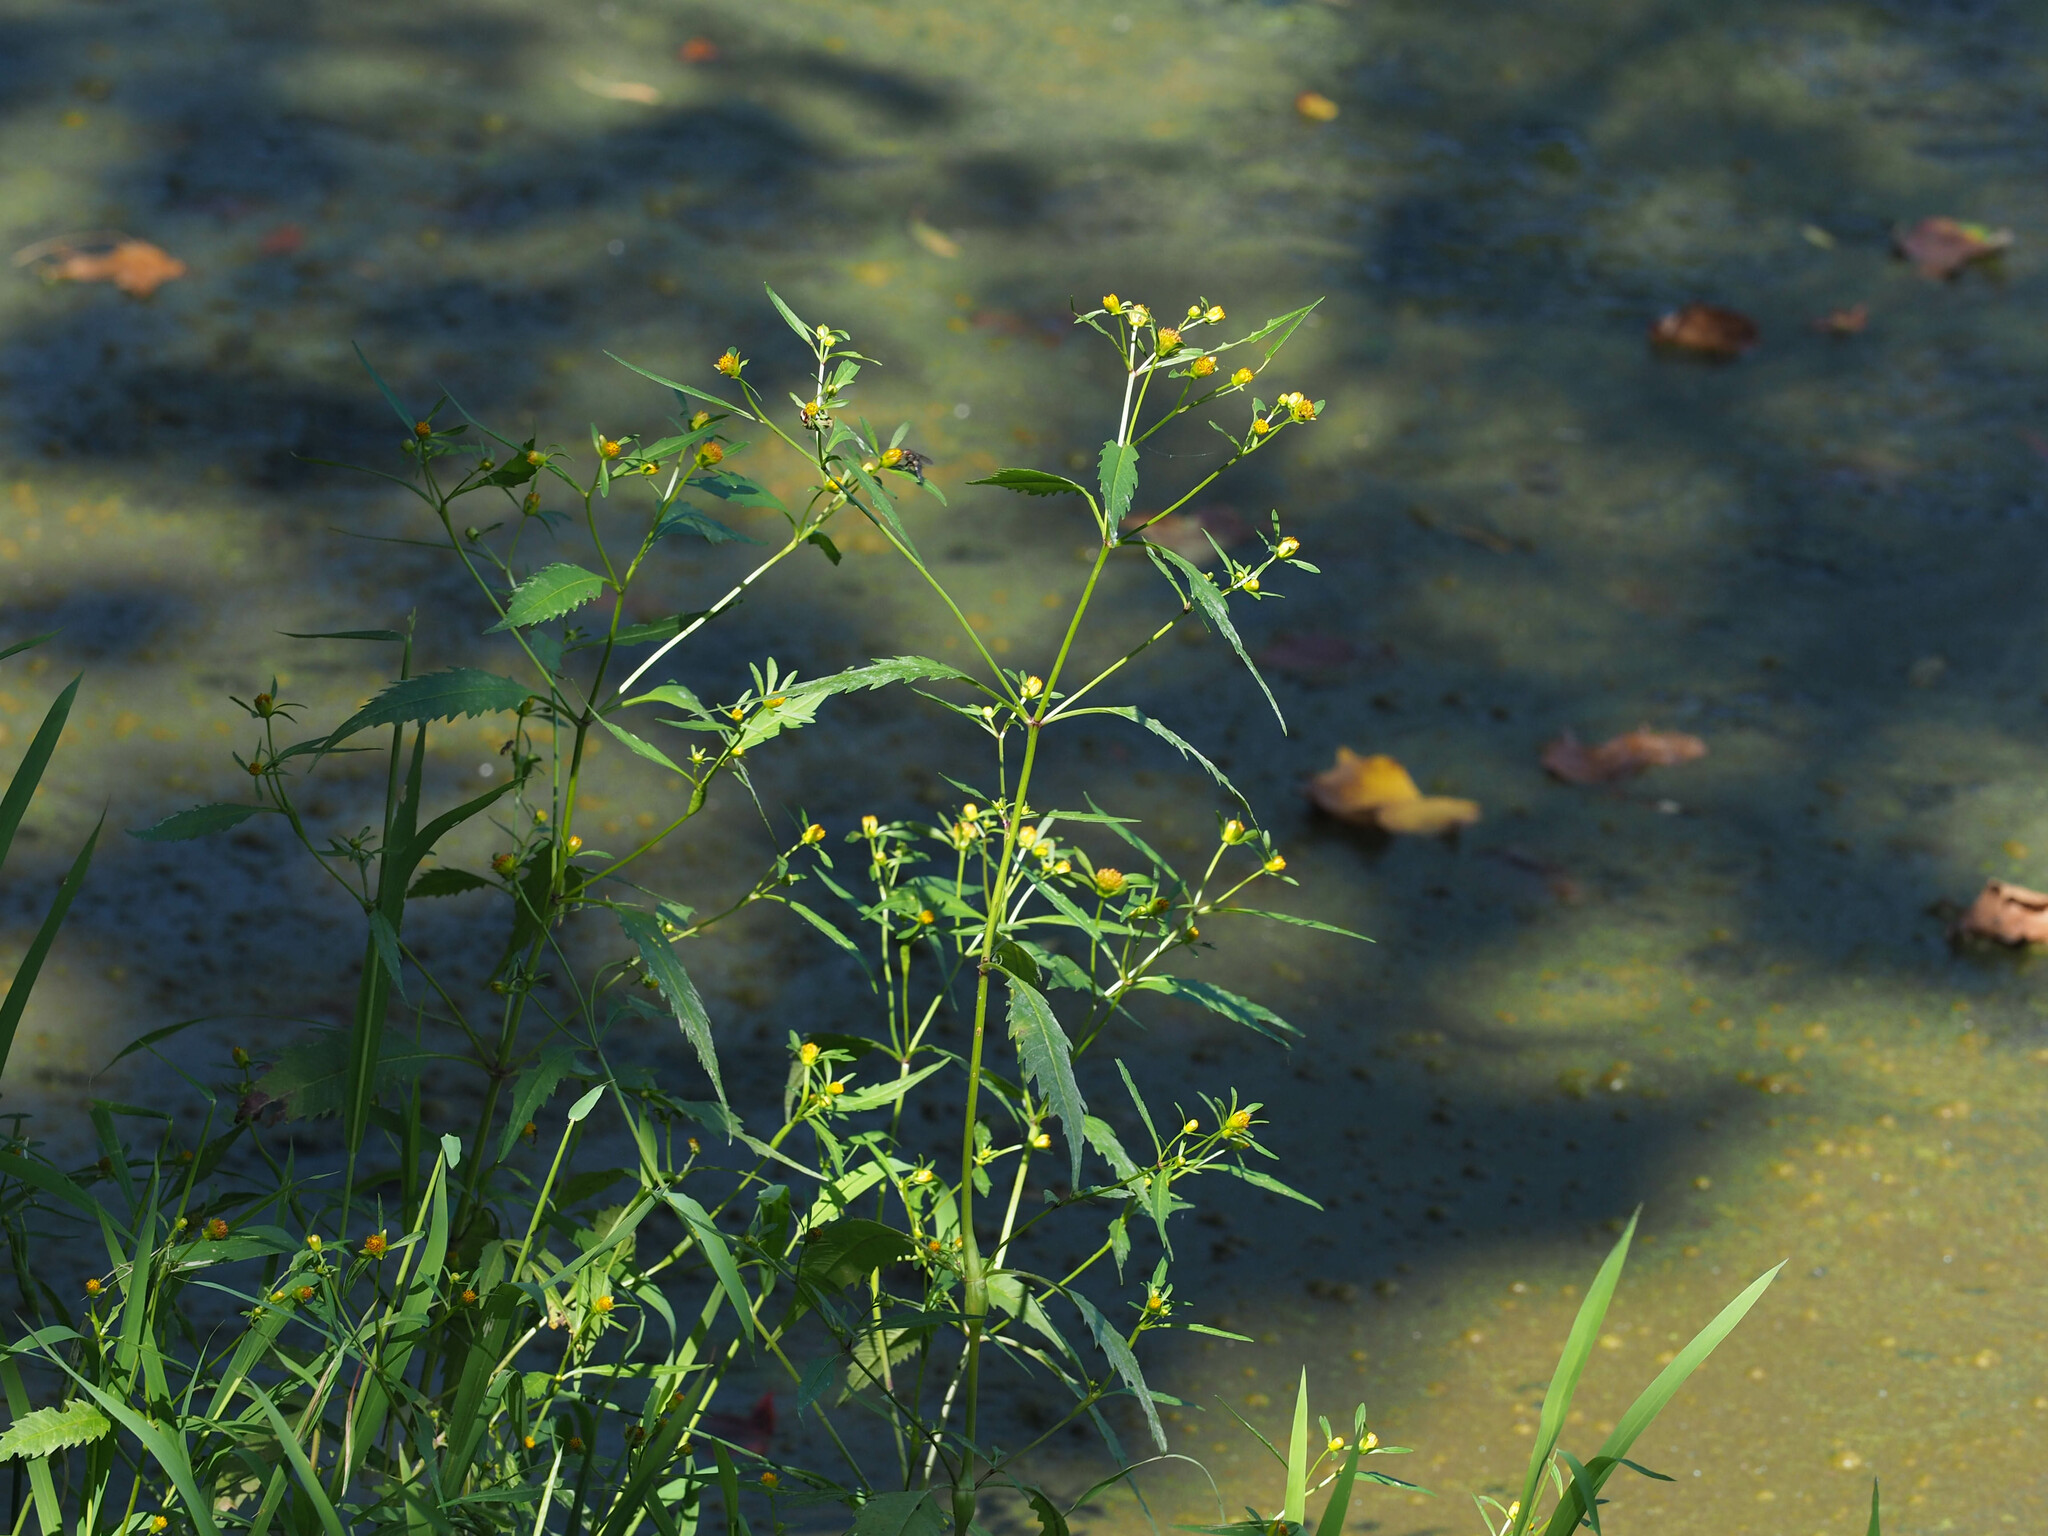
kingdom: Plantae
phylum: Tracheophyta
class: Magnoliopsida
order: Asterales
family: Asteraceae
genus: Bidens
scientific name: Bidens connata
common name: London bur-marigold
